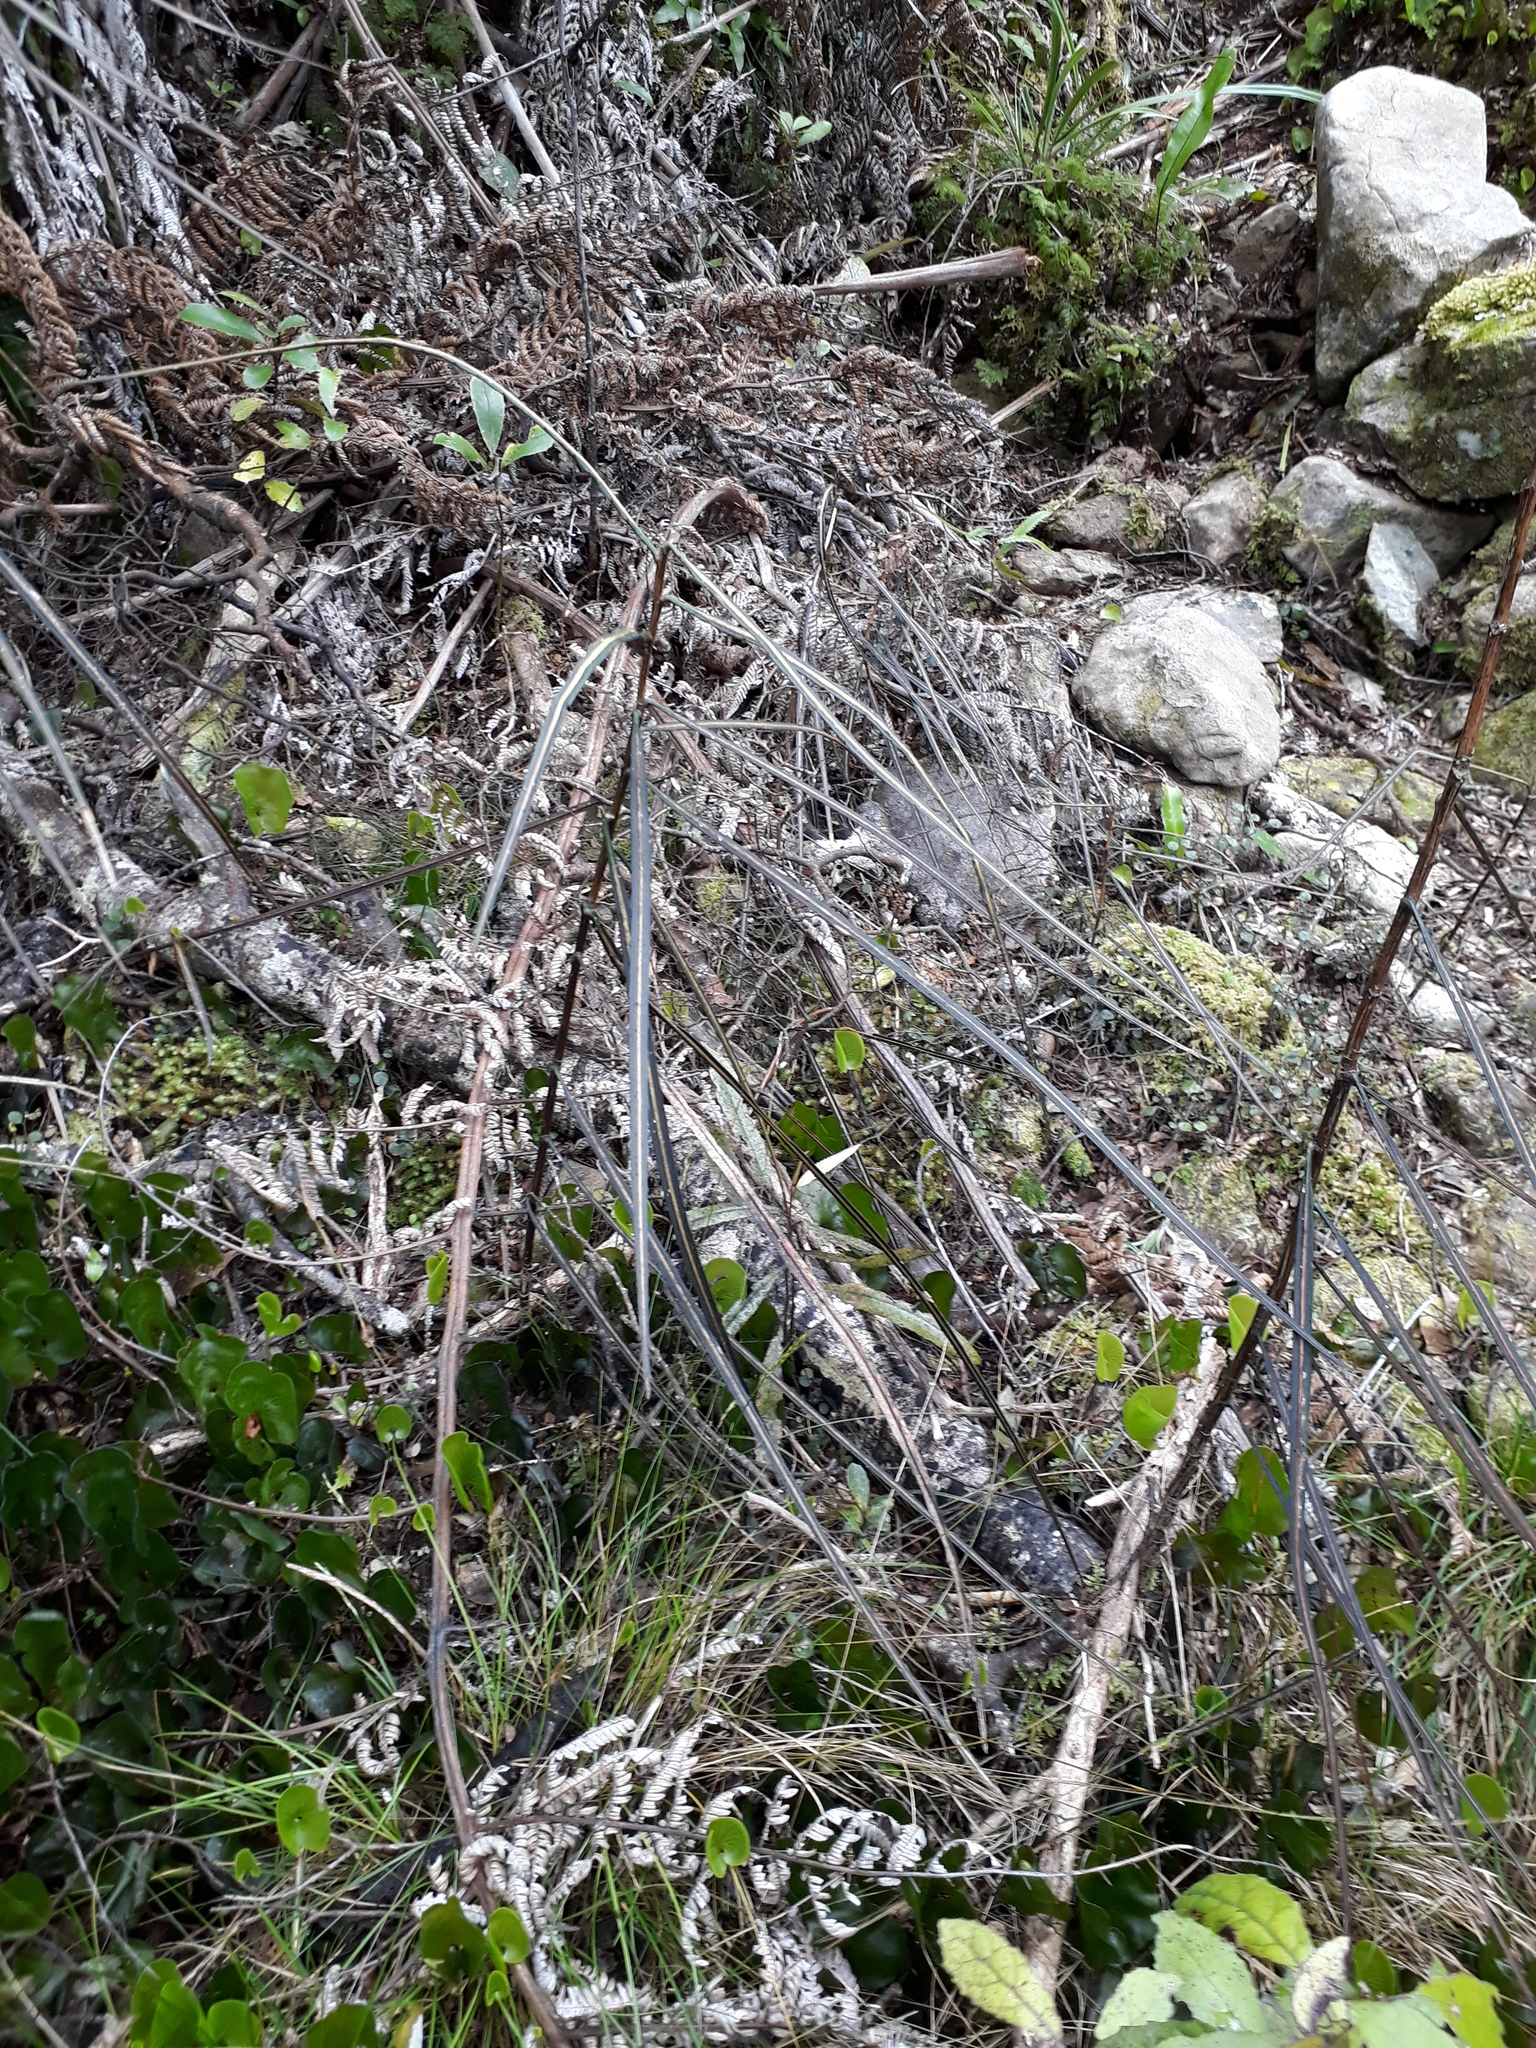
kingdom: Plantae
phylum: Tracheophyta
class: Magnoliopsida
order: Apiales
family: Araliaceae
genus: Pseudopanax
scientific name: Pseudopanax crassifolius
